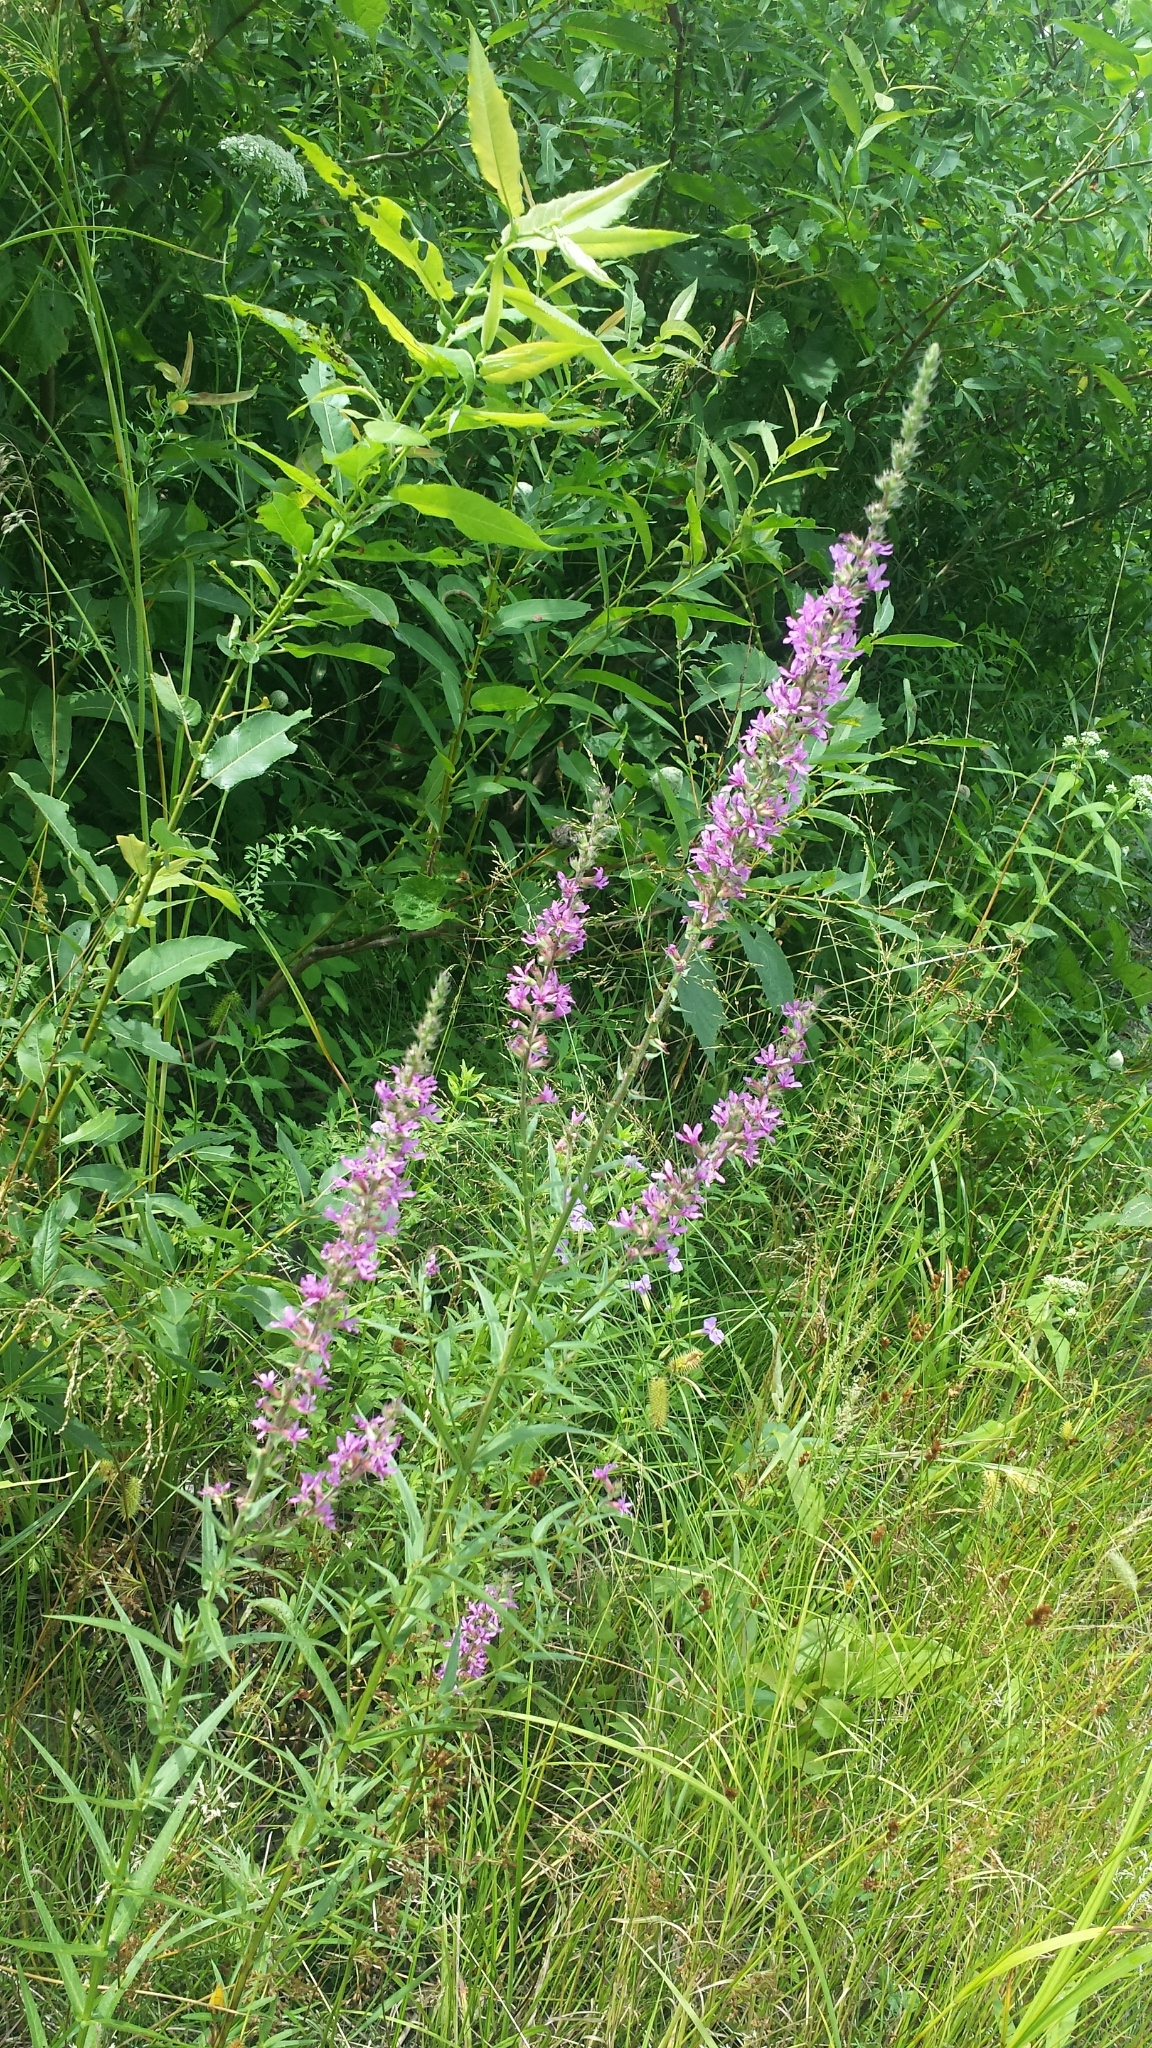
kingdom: Plantae
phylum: Tracheophyta
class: Magnoliopsida
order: Myrtales
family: Lythraceae
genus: Lythrum
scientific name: Lythrum salicaria
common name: Purple loosestrife
